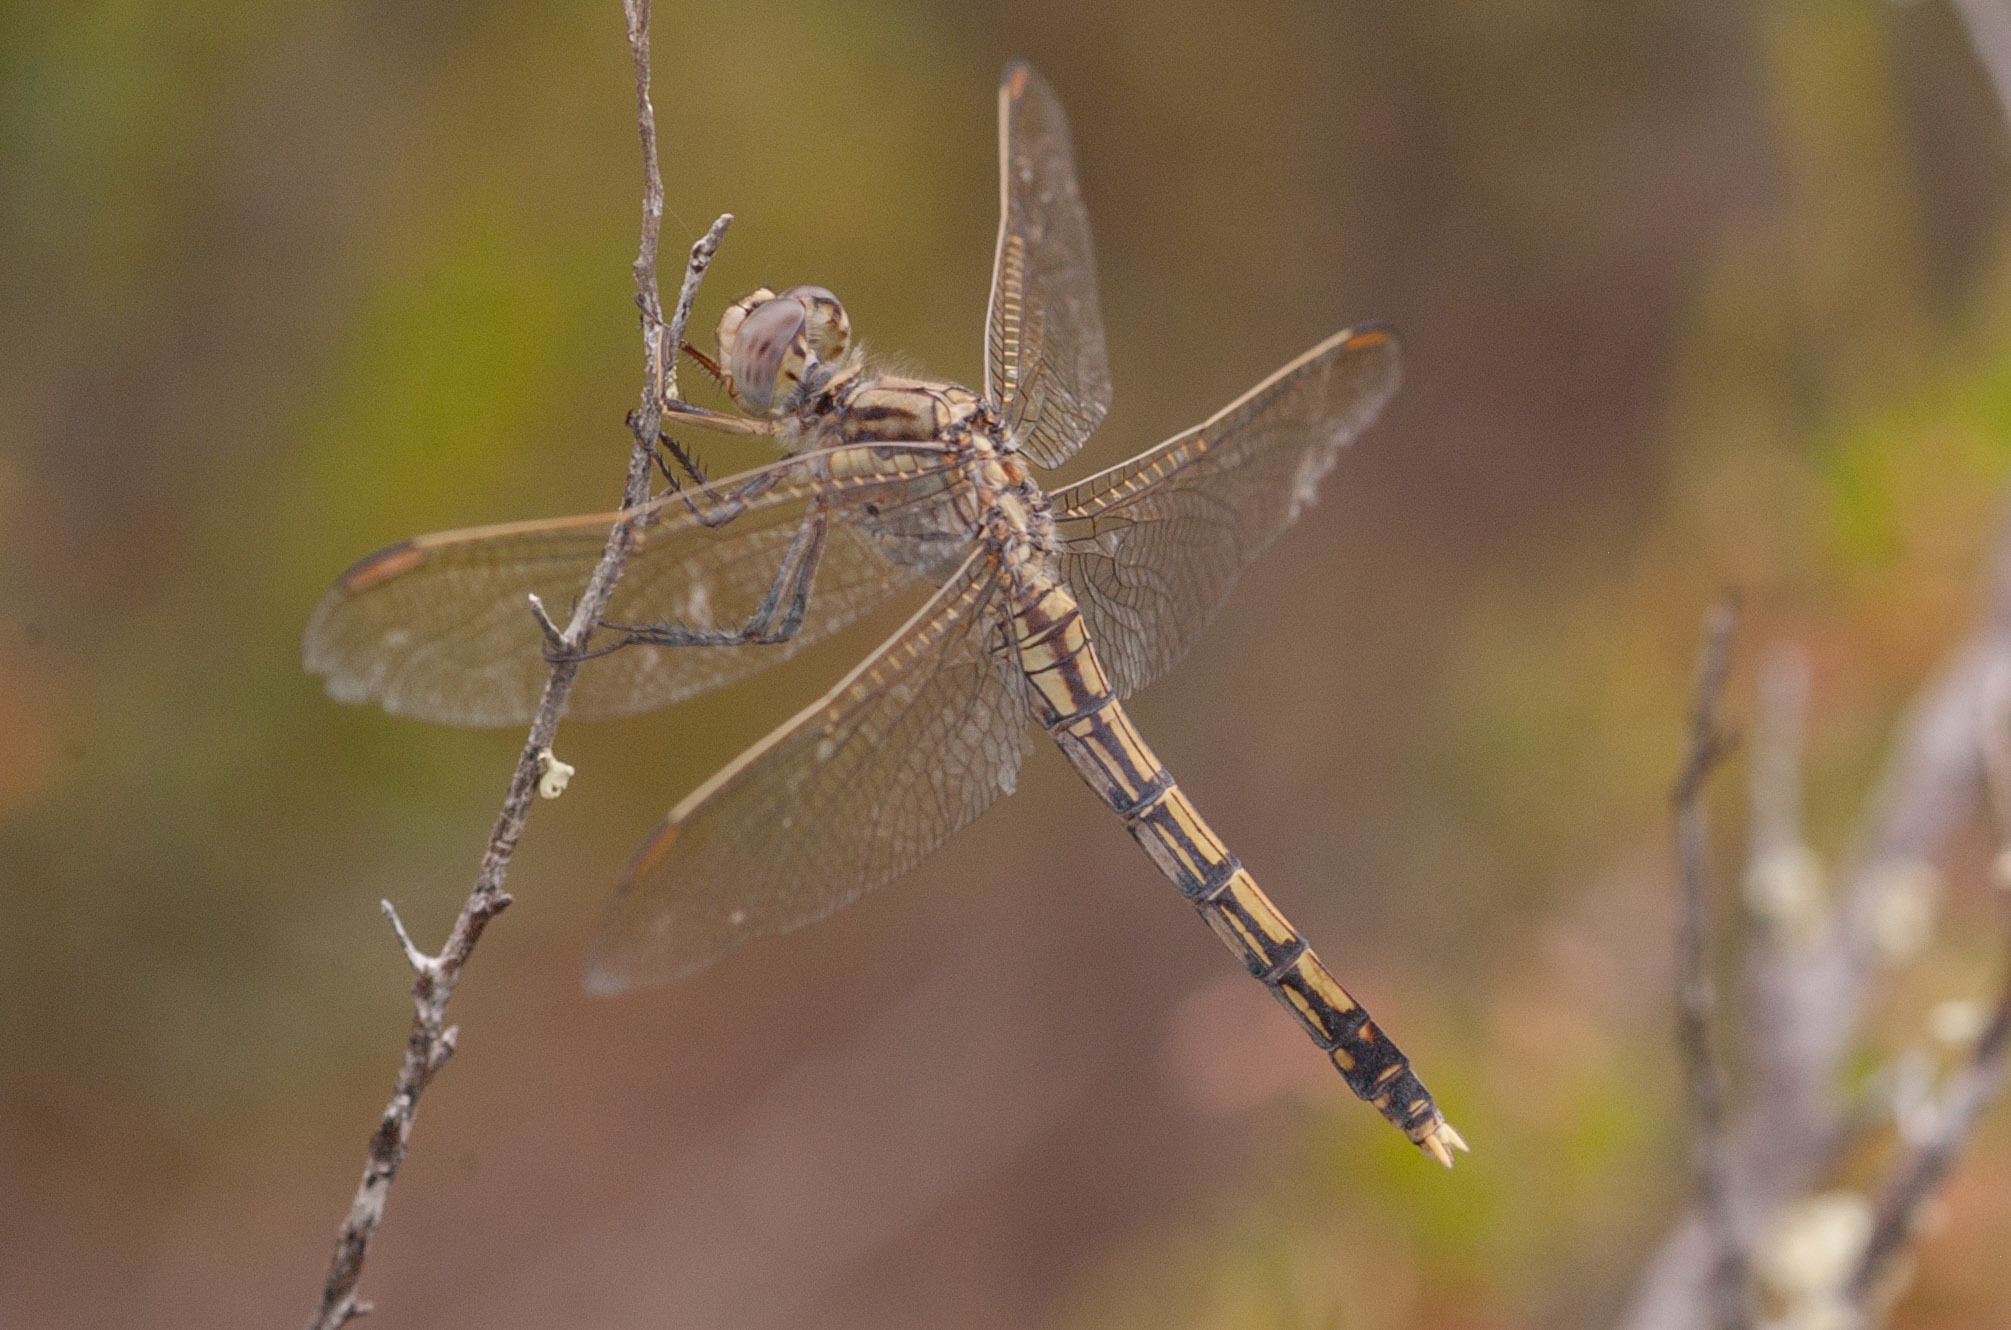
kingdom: Animalia
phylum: Arthropoda
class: Insecta
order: Odonata
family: Libellulidae
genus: Orthetrum
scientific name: Orthetrum caledonicum
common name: Blue skimmer
